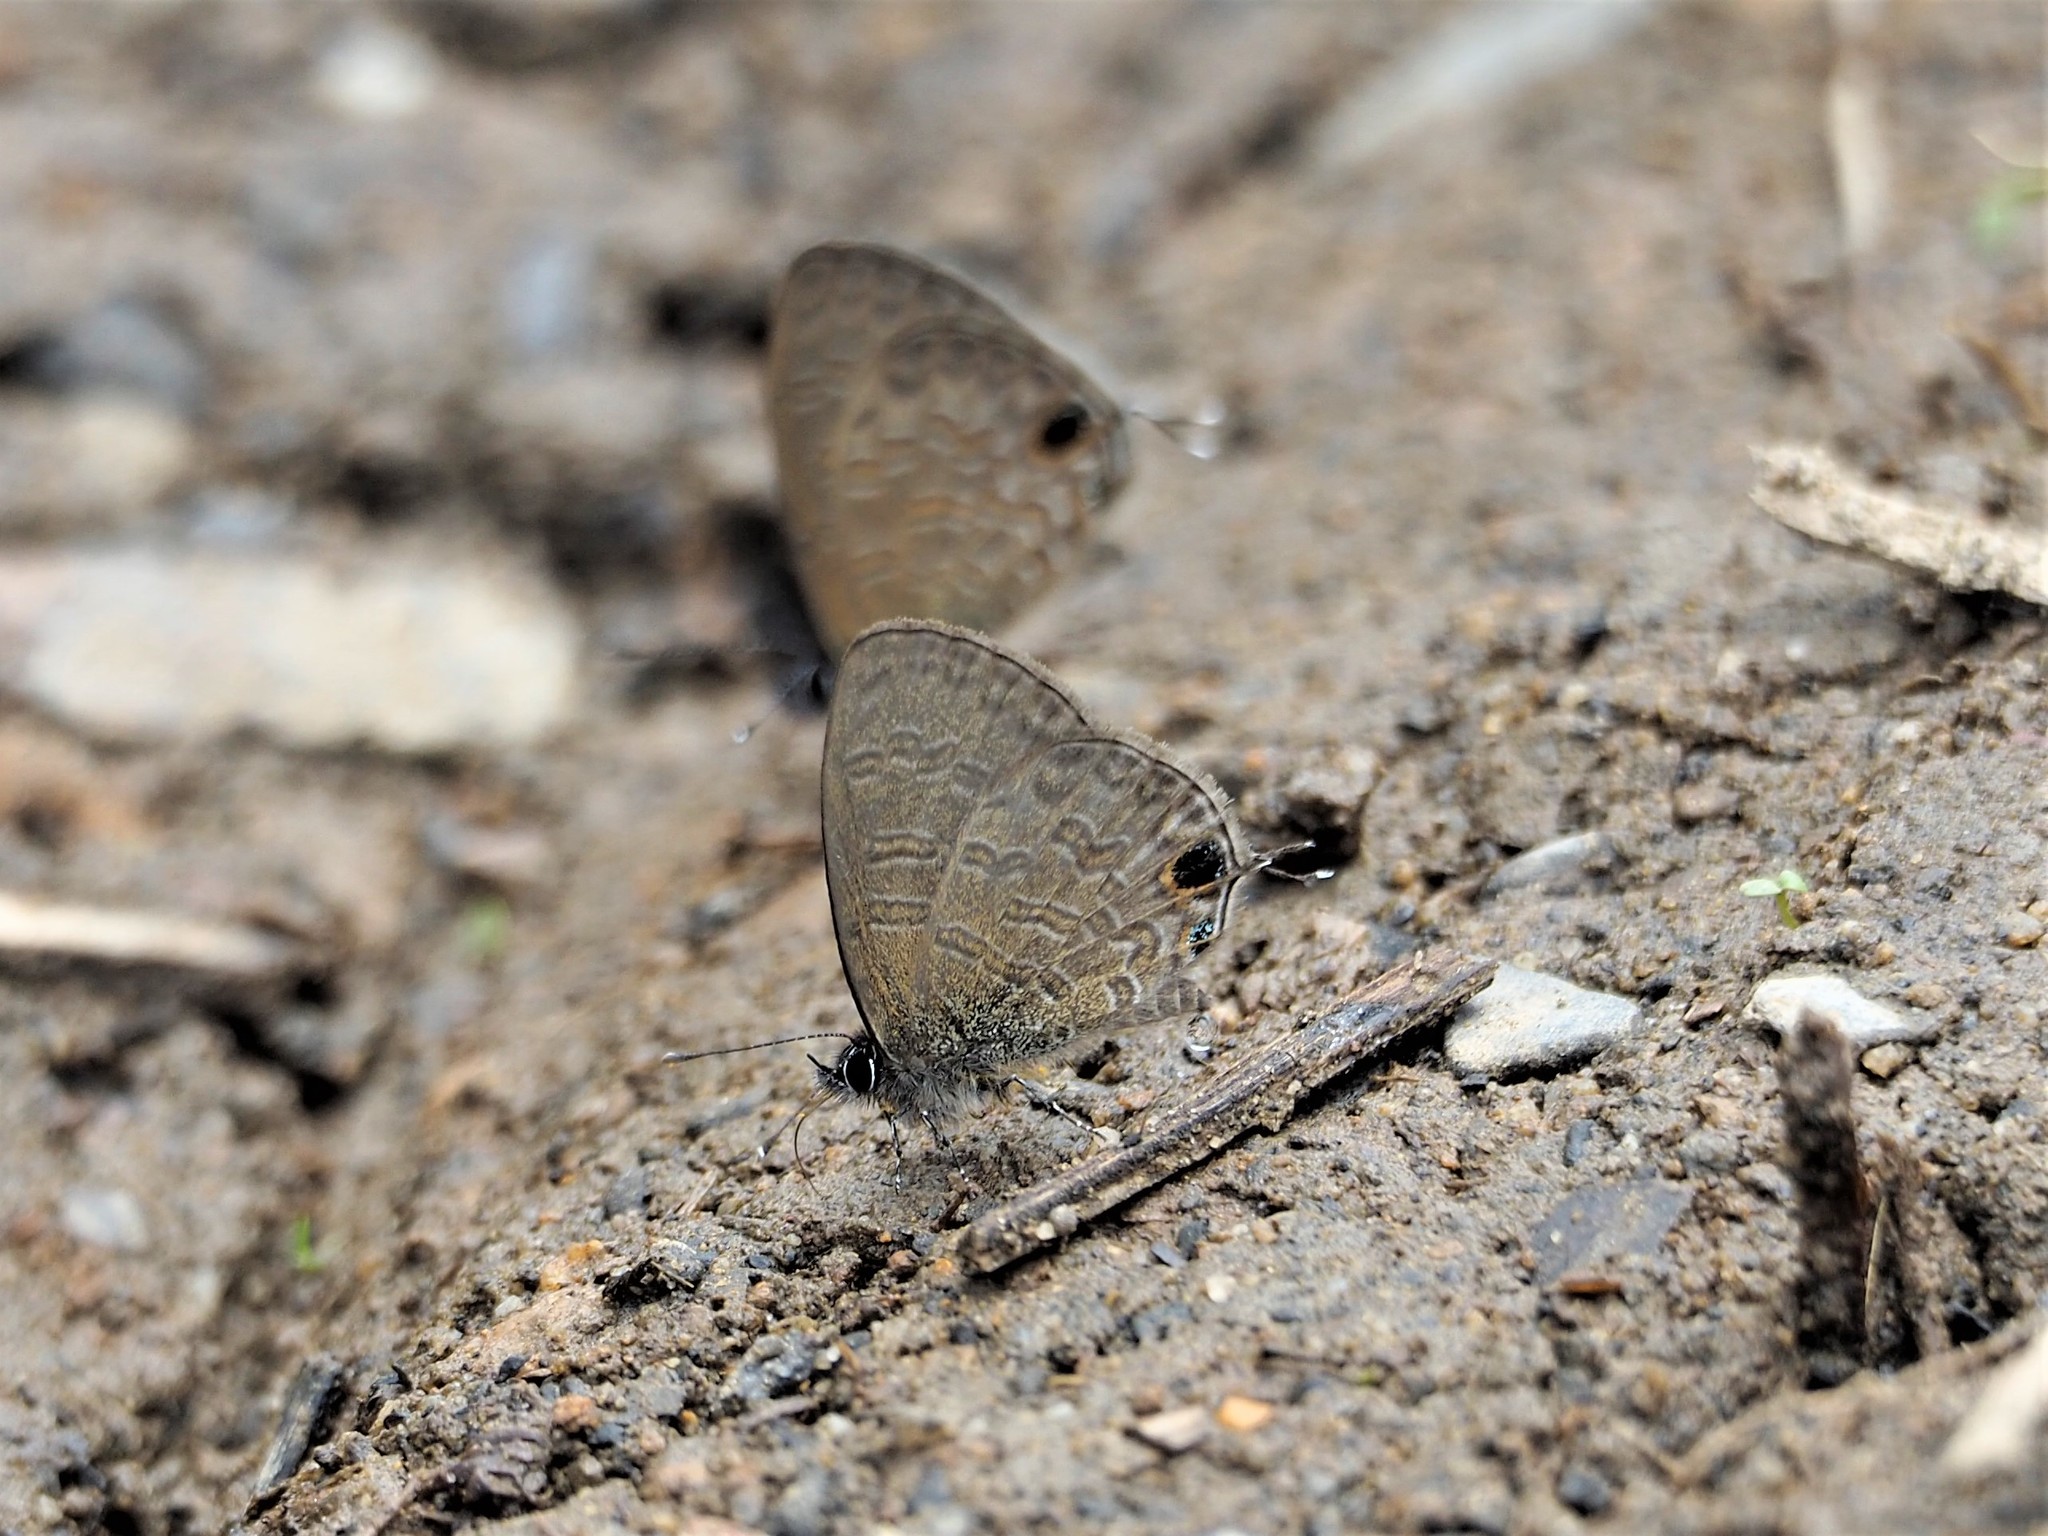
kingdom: Animalia
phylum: Arthropoda
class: Insecta
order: Lepidoptera
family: Lycaenidae
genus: Prosotas
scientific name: Prosotas nora
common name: Common line blue
